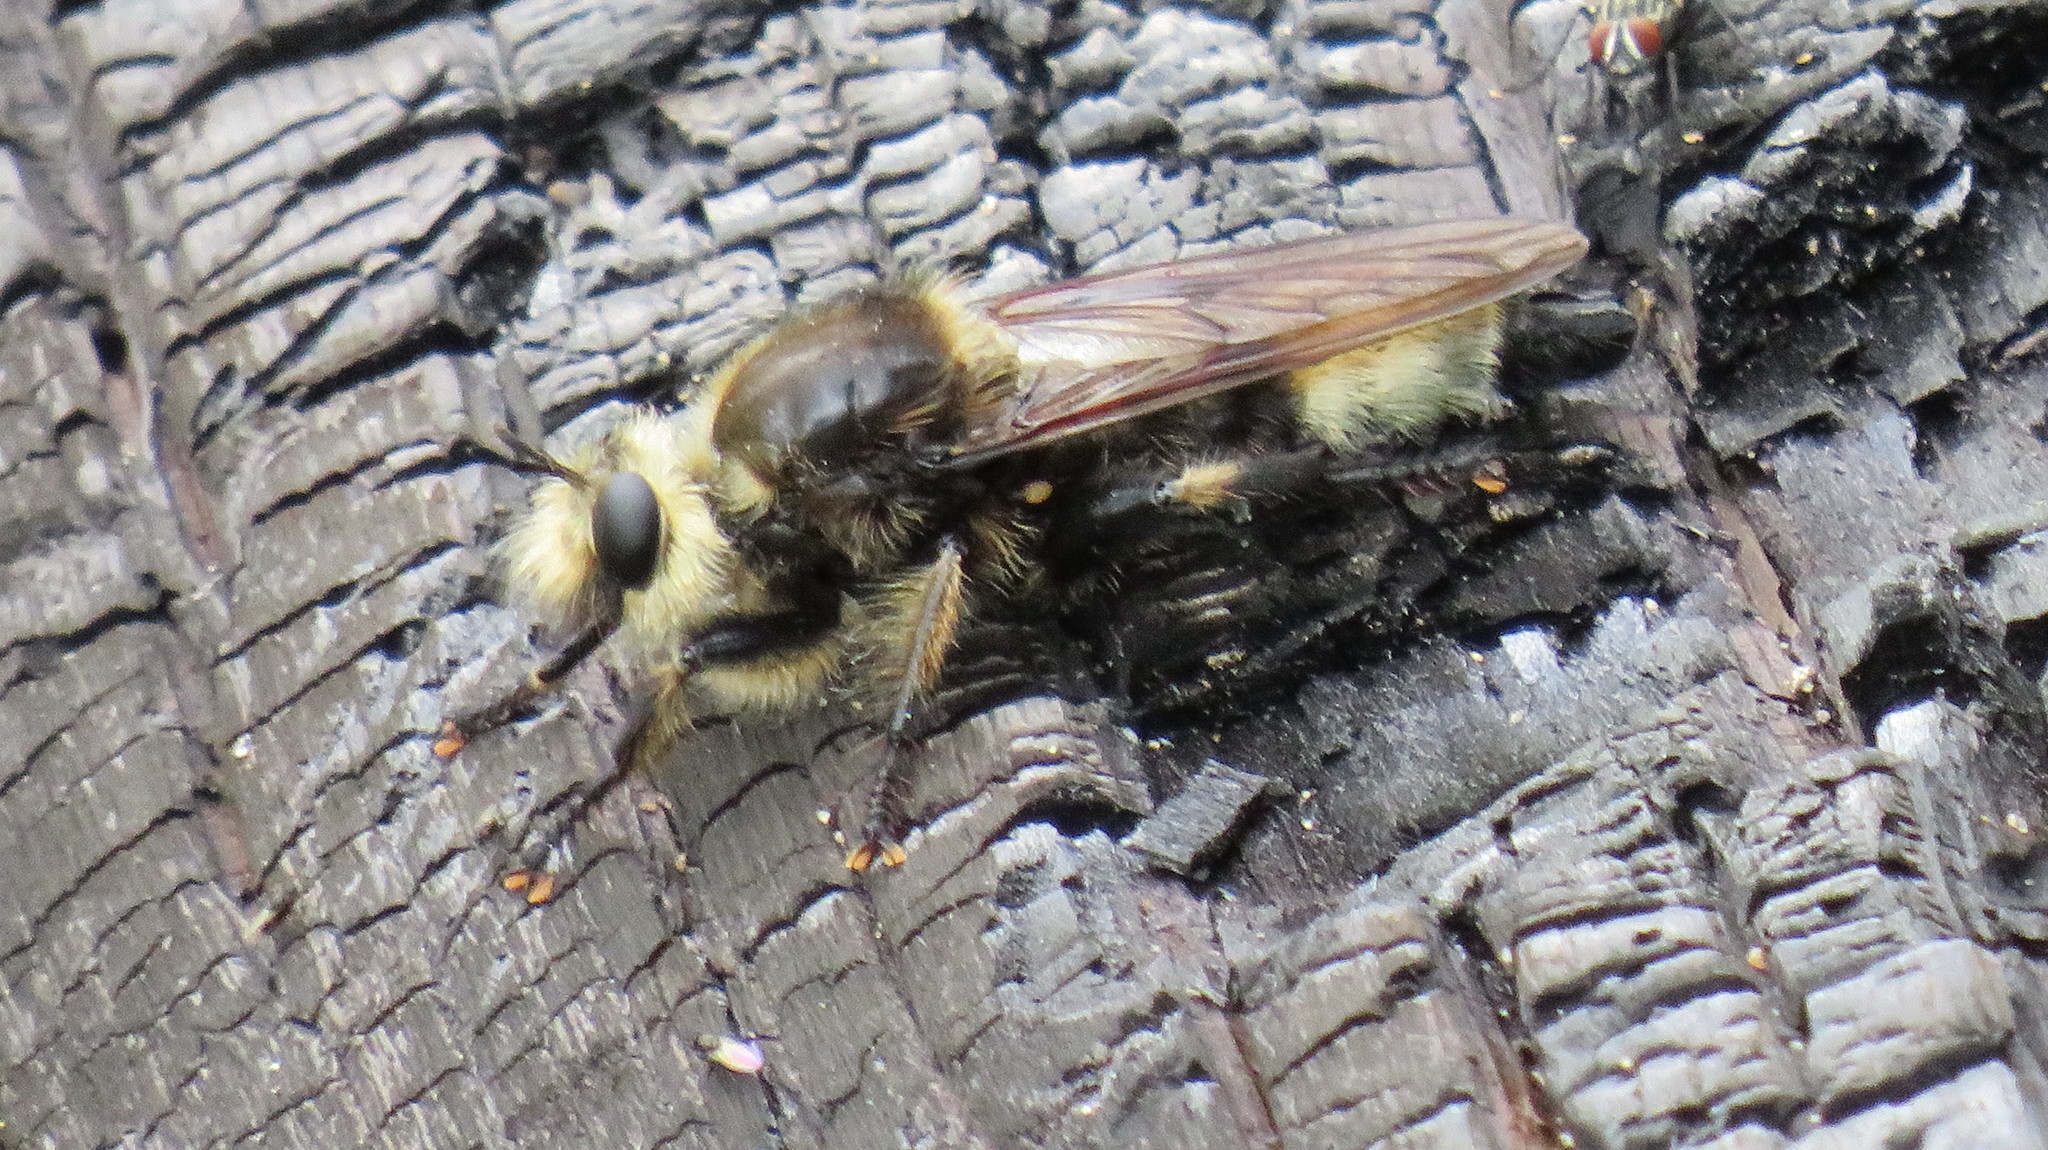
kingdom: Animalia
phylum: Arthropoda
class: Insecta
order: Diptera
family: Asilidae
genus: Laphria
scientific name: Laphria gibbosa
